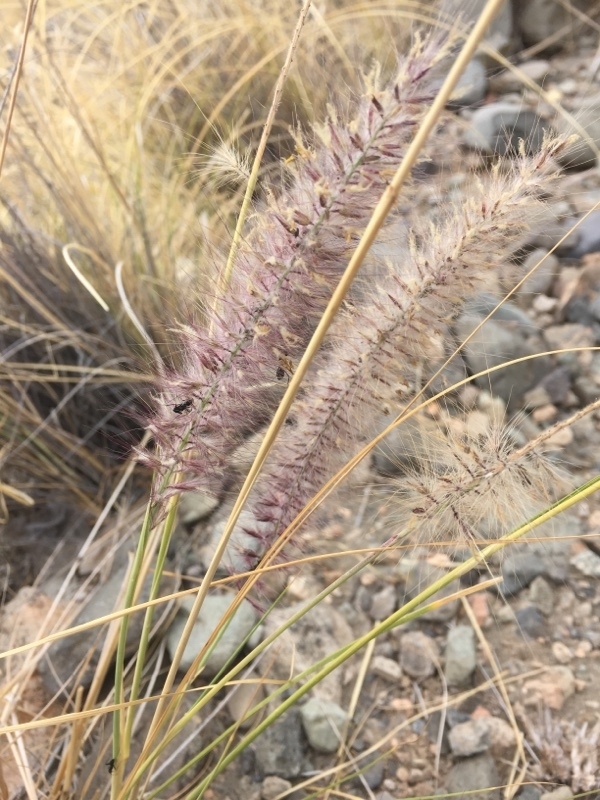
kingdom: Plantae
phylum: Tracheophyta
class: Liliopsida
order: Poales
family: Poaceae
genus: Cenchrus
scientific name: Cenchrus setaceus
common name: Crimson fountaingrass
